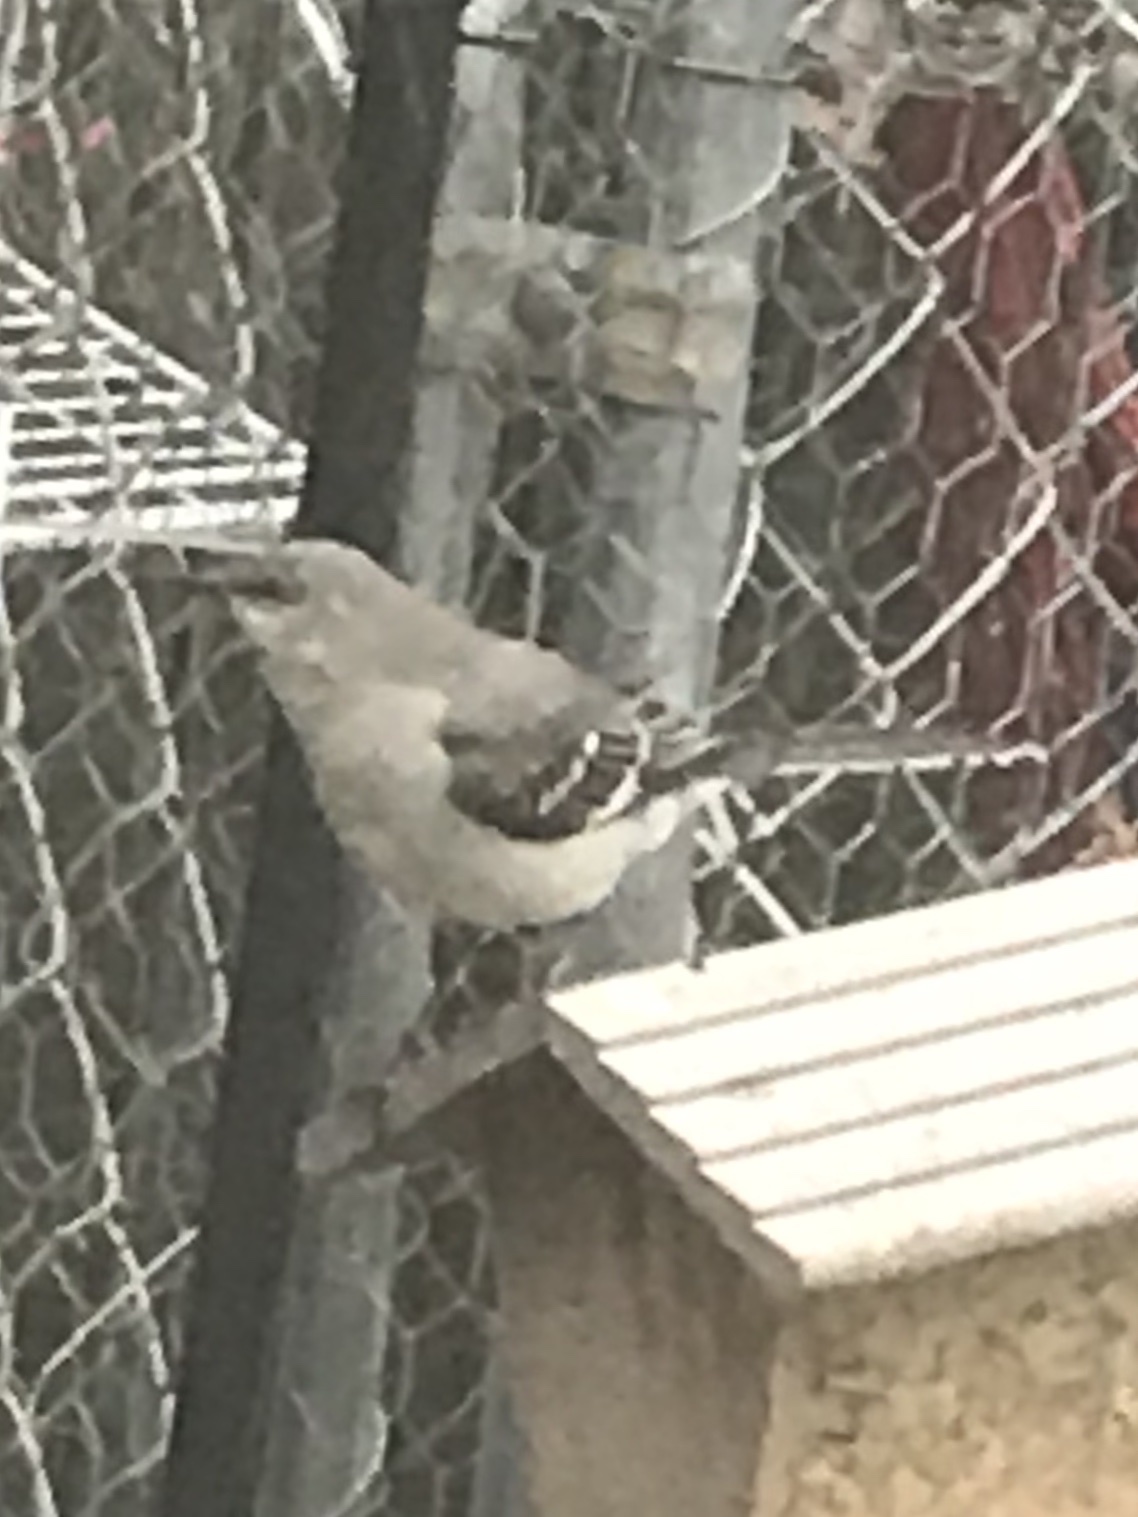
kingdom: Animalia
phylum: Chordata
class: Aves
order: Passeriformes
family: Mimidae
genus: Mimus
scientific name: Mimus polyglottos
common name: Northern mockingbird
